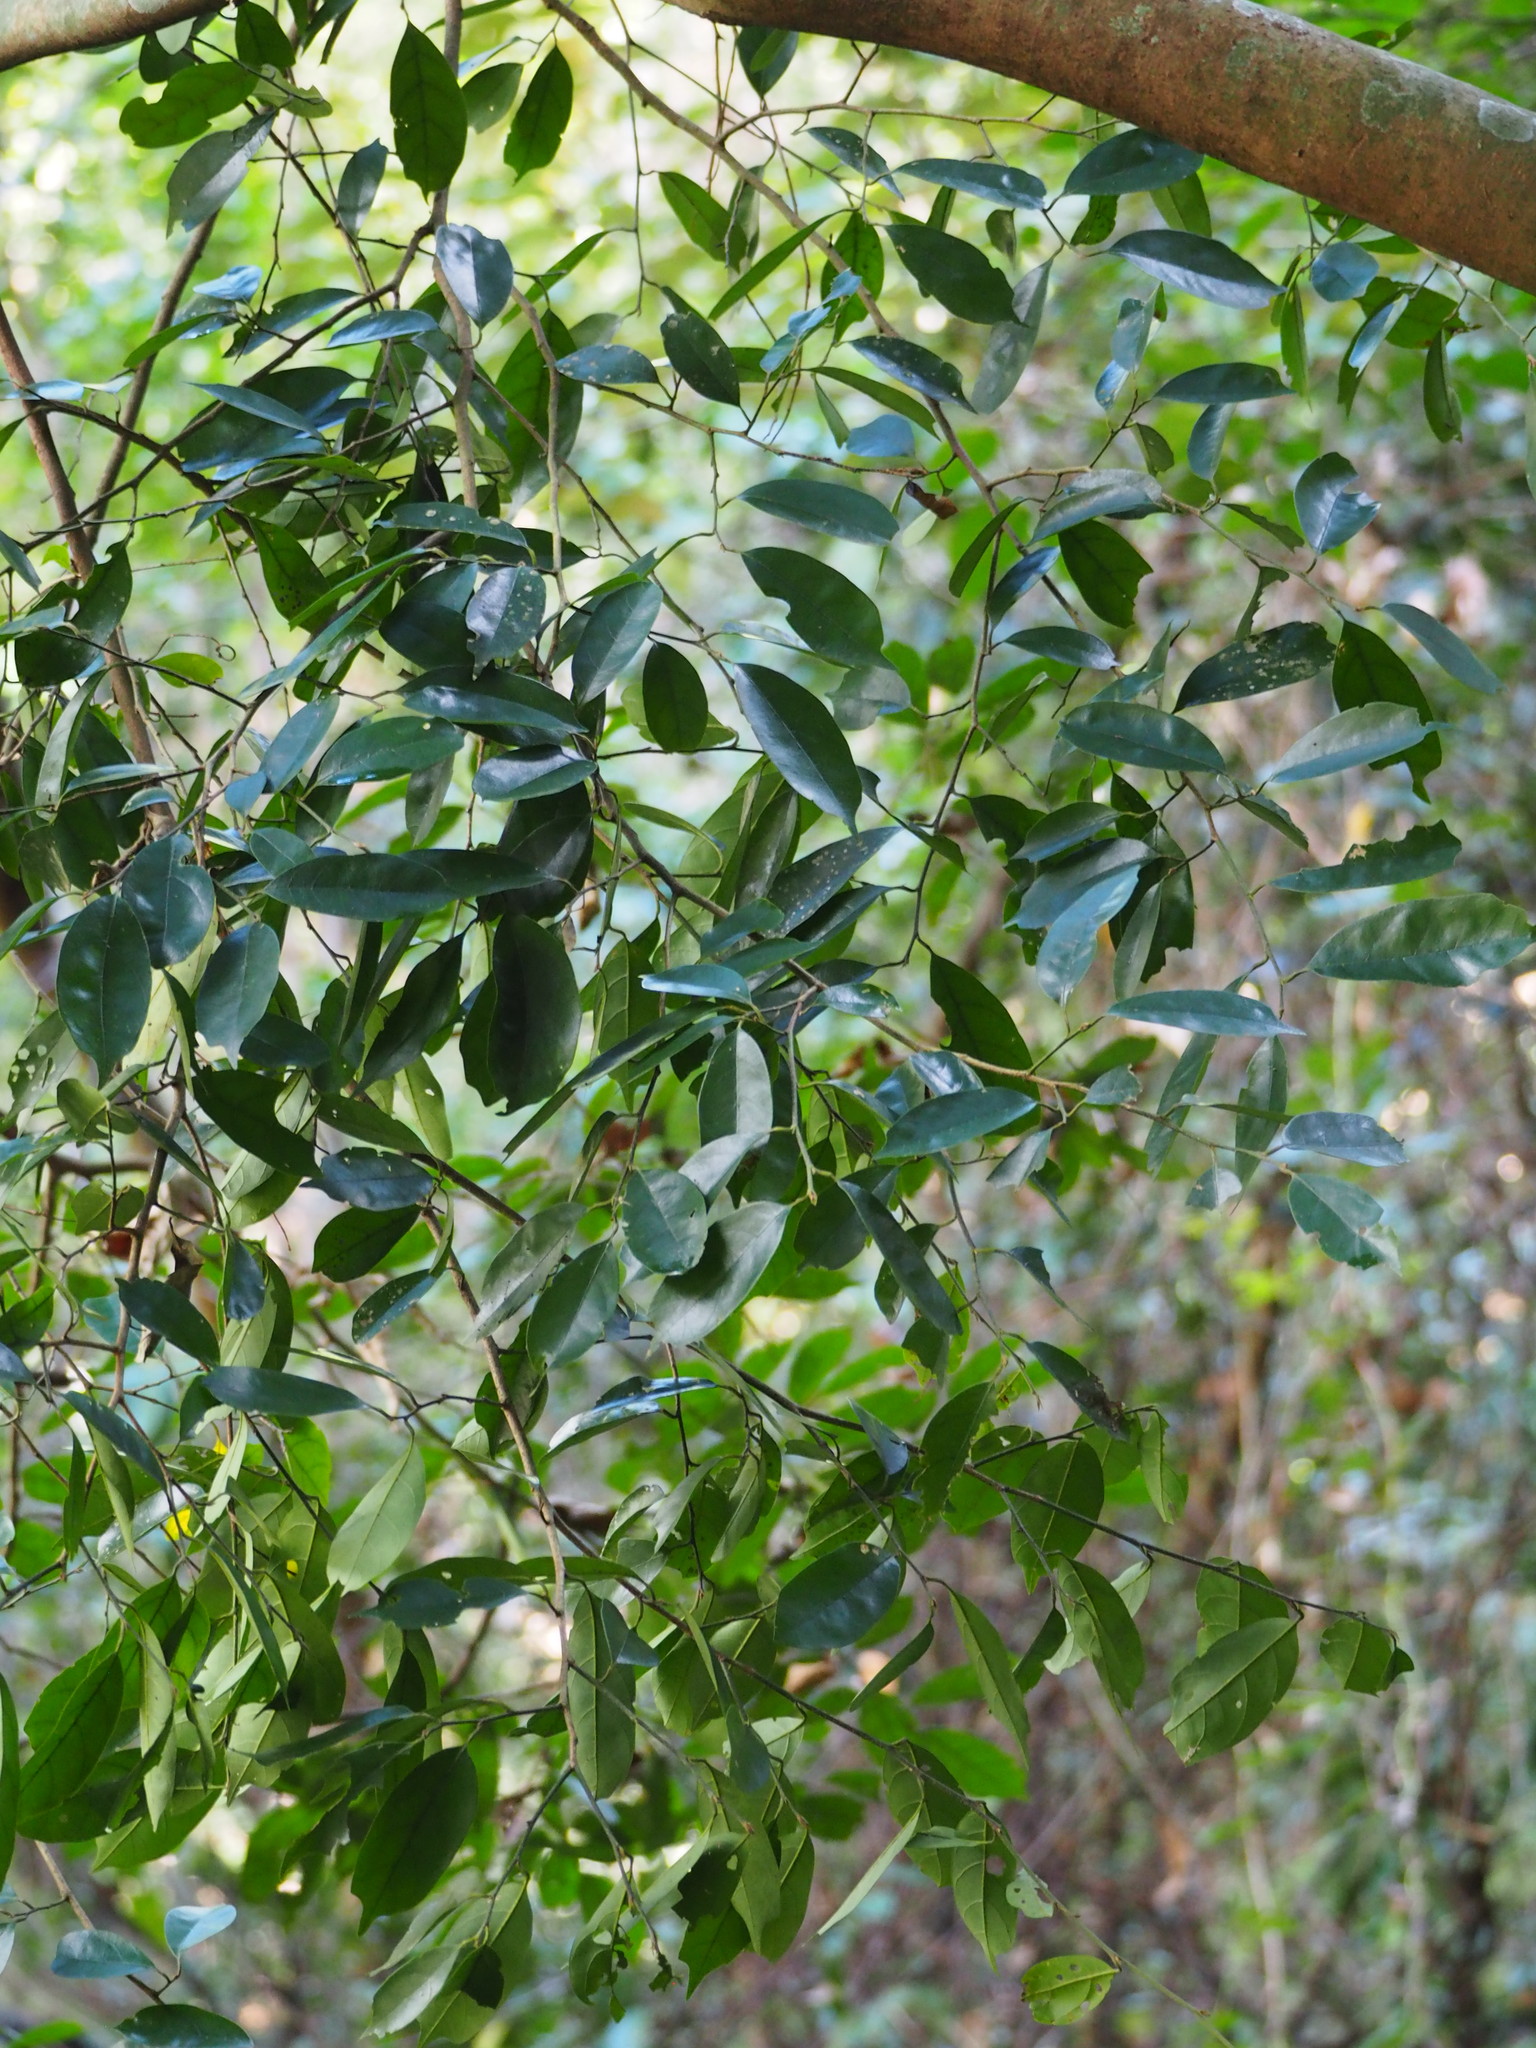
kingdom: Plantae
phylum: Tracheophyta
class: Magnoliopsida
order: Saxifragales
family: Hamamelidaceae
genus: Eustigma
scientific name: Eustigma oblongifolium
